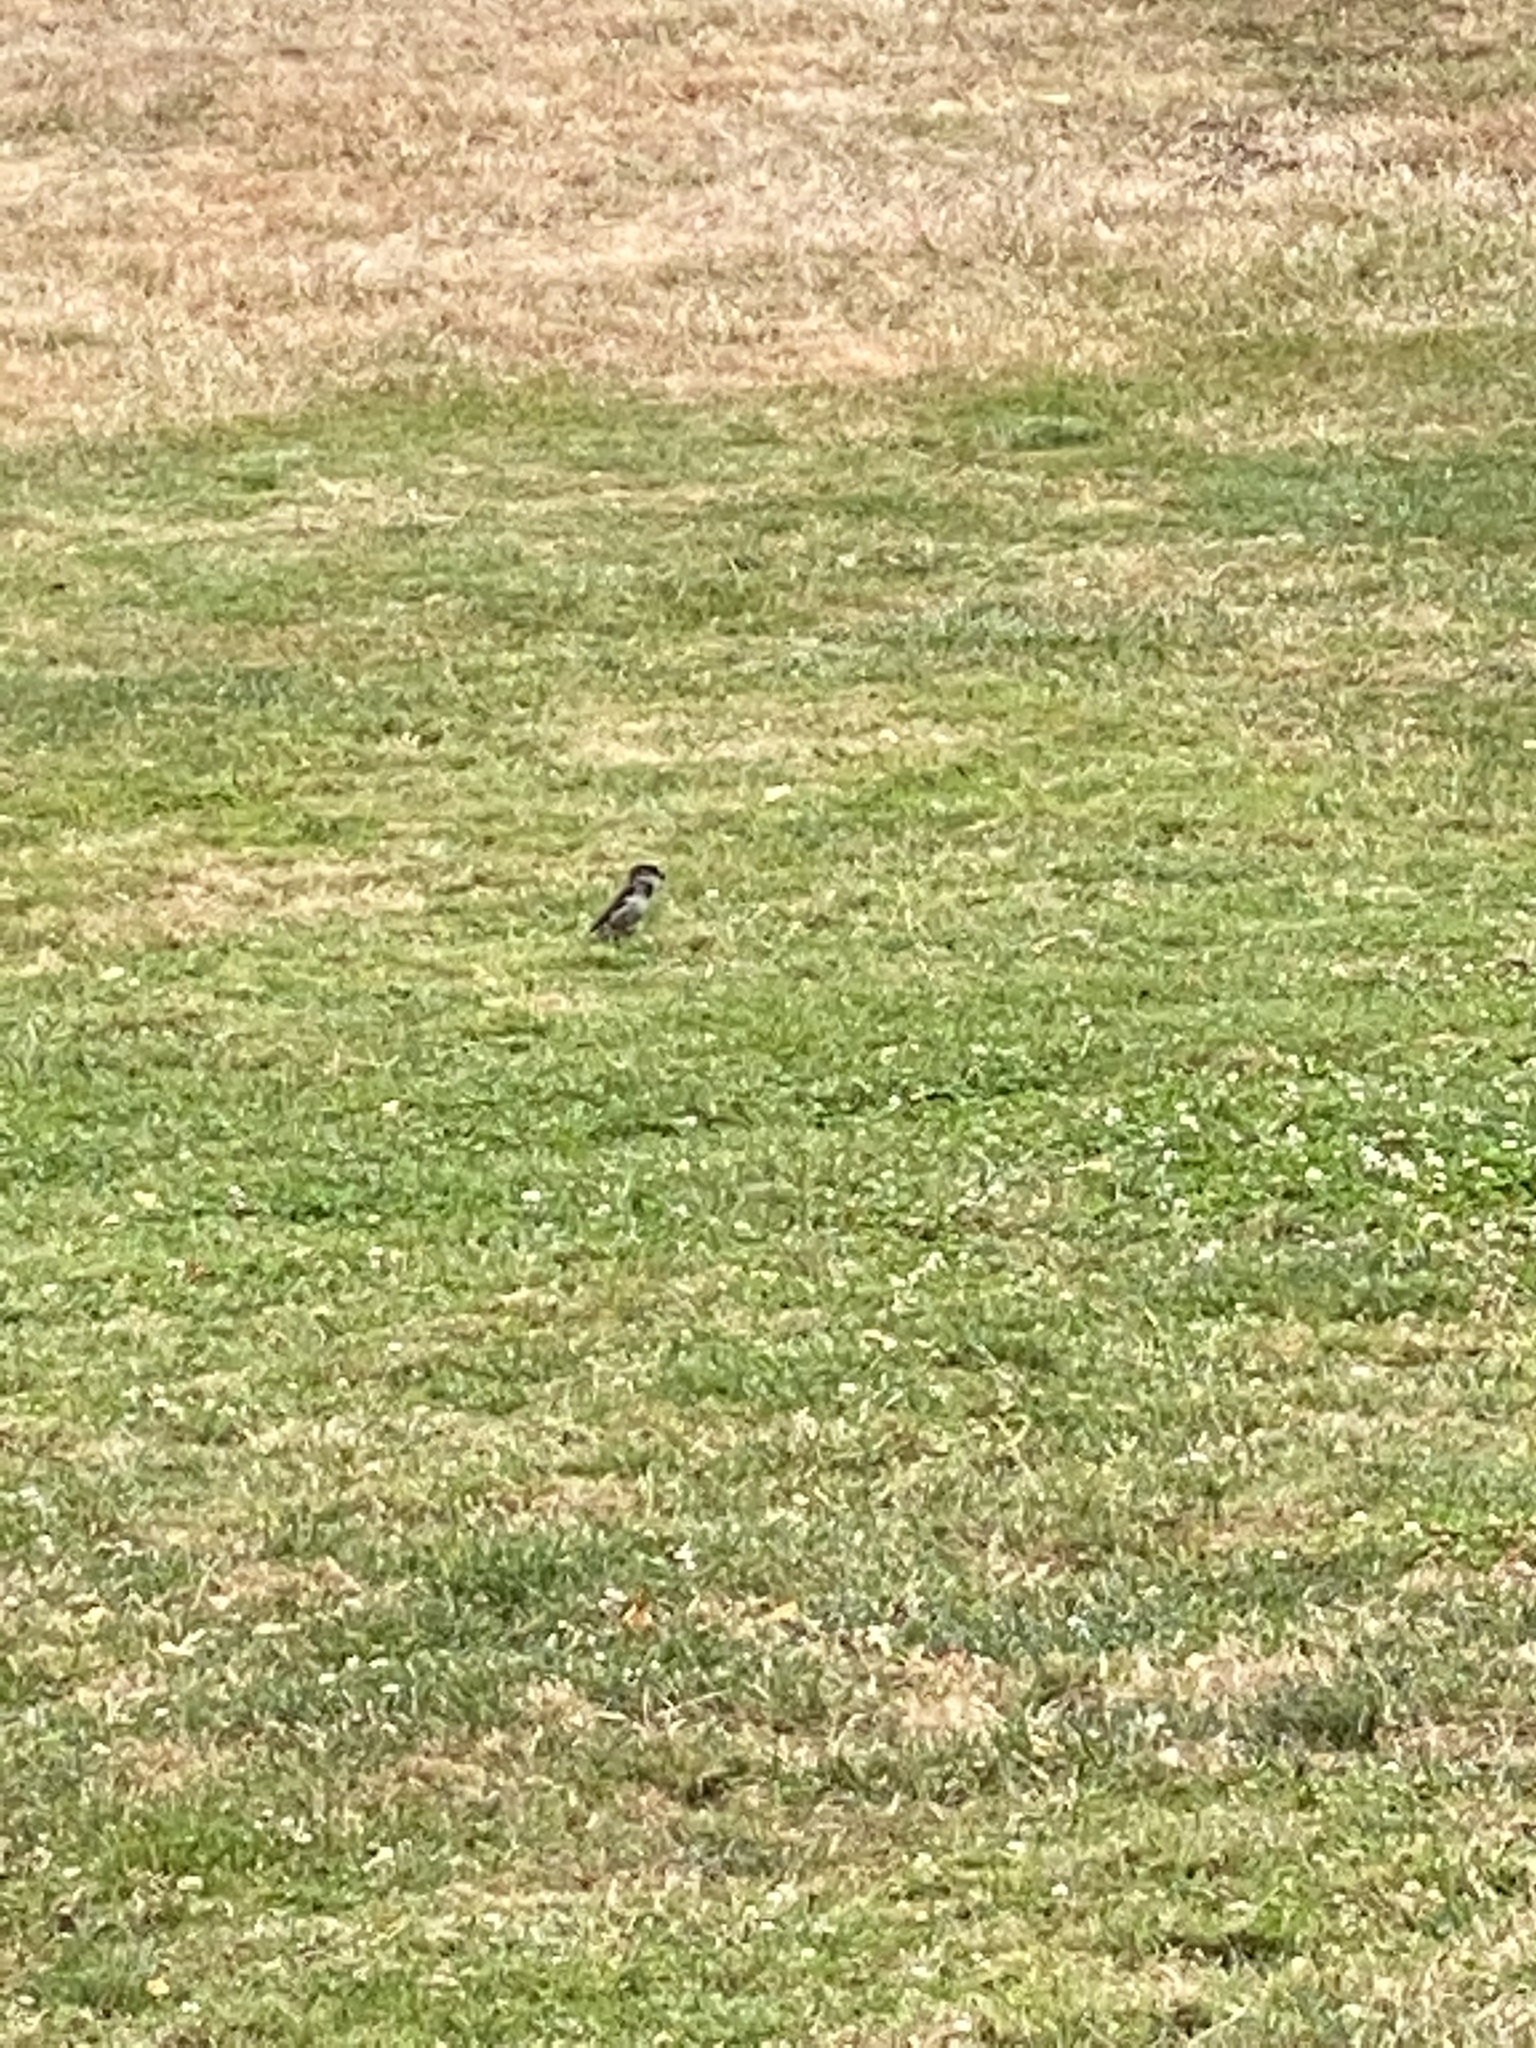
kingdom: Animalia
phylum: Chordata
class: Aves
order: Passeriformes
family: Passeridae
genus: Passer
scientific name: Passer domesticus
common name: House sparrow
